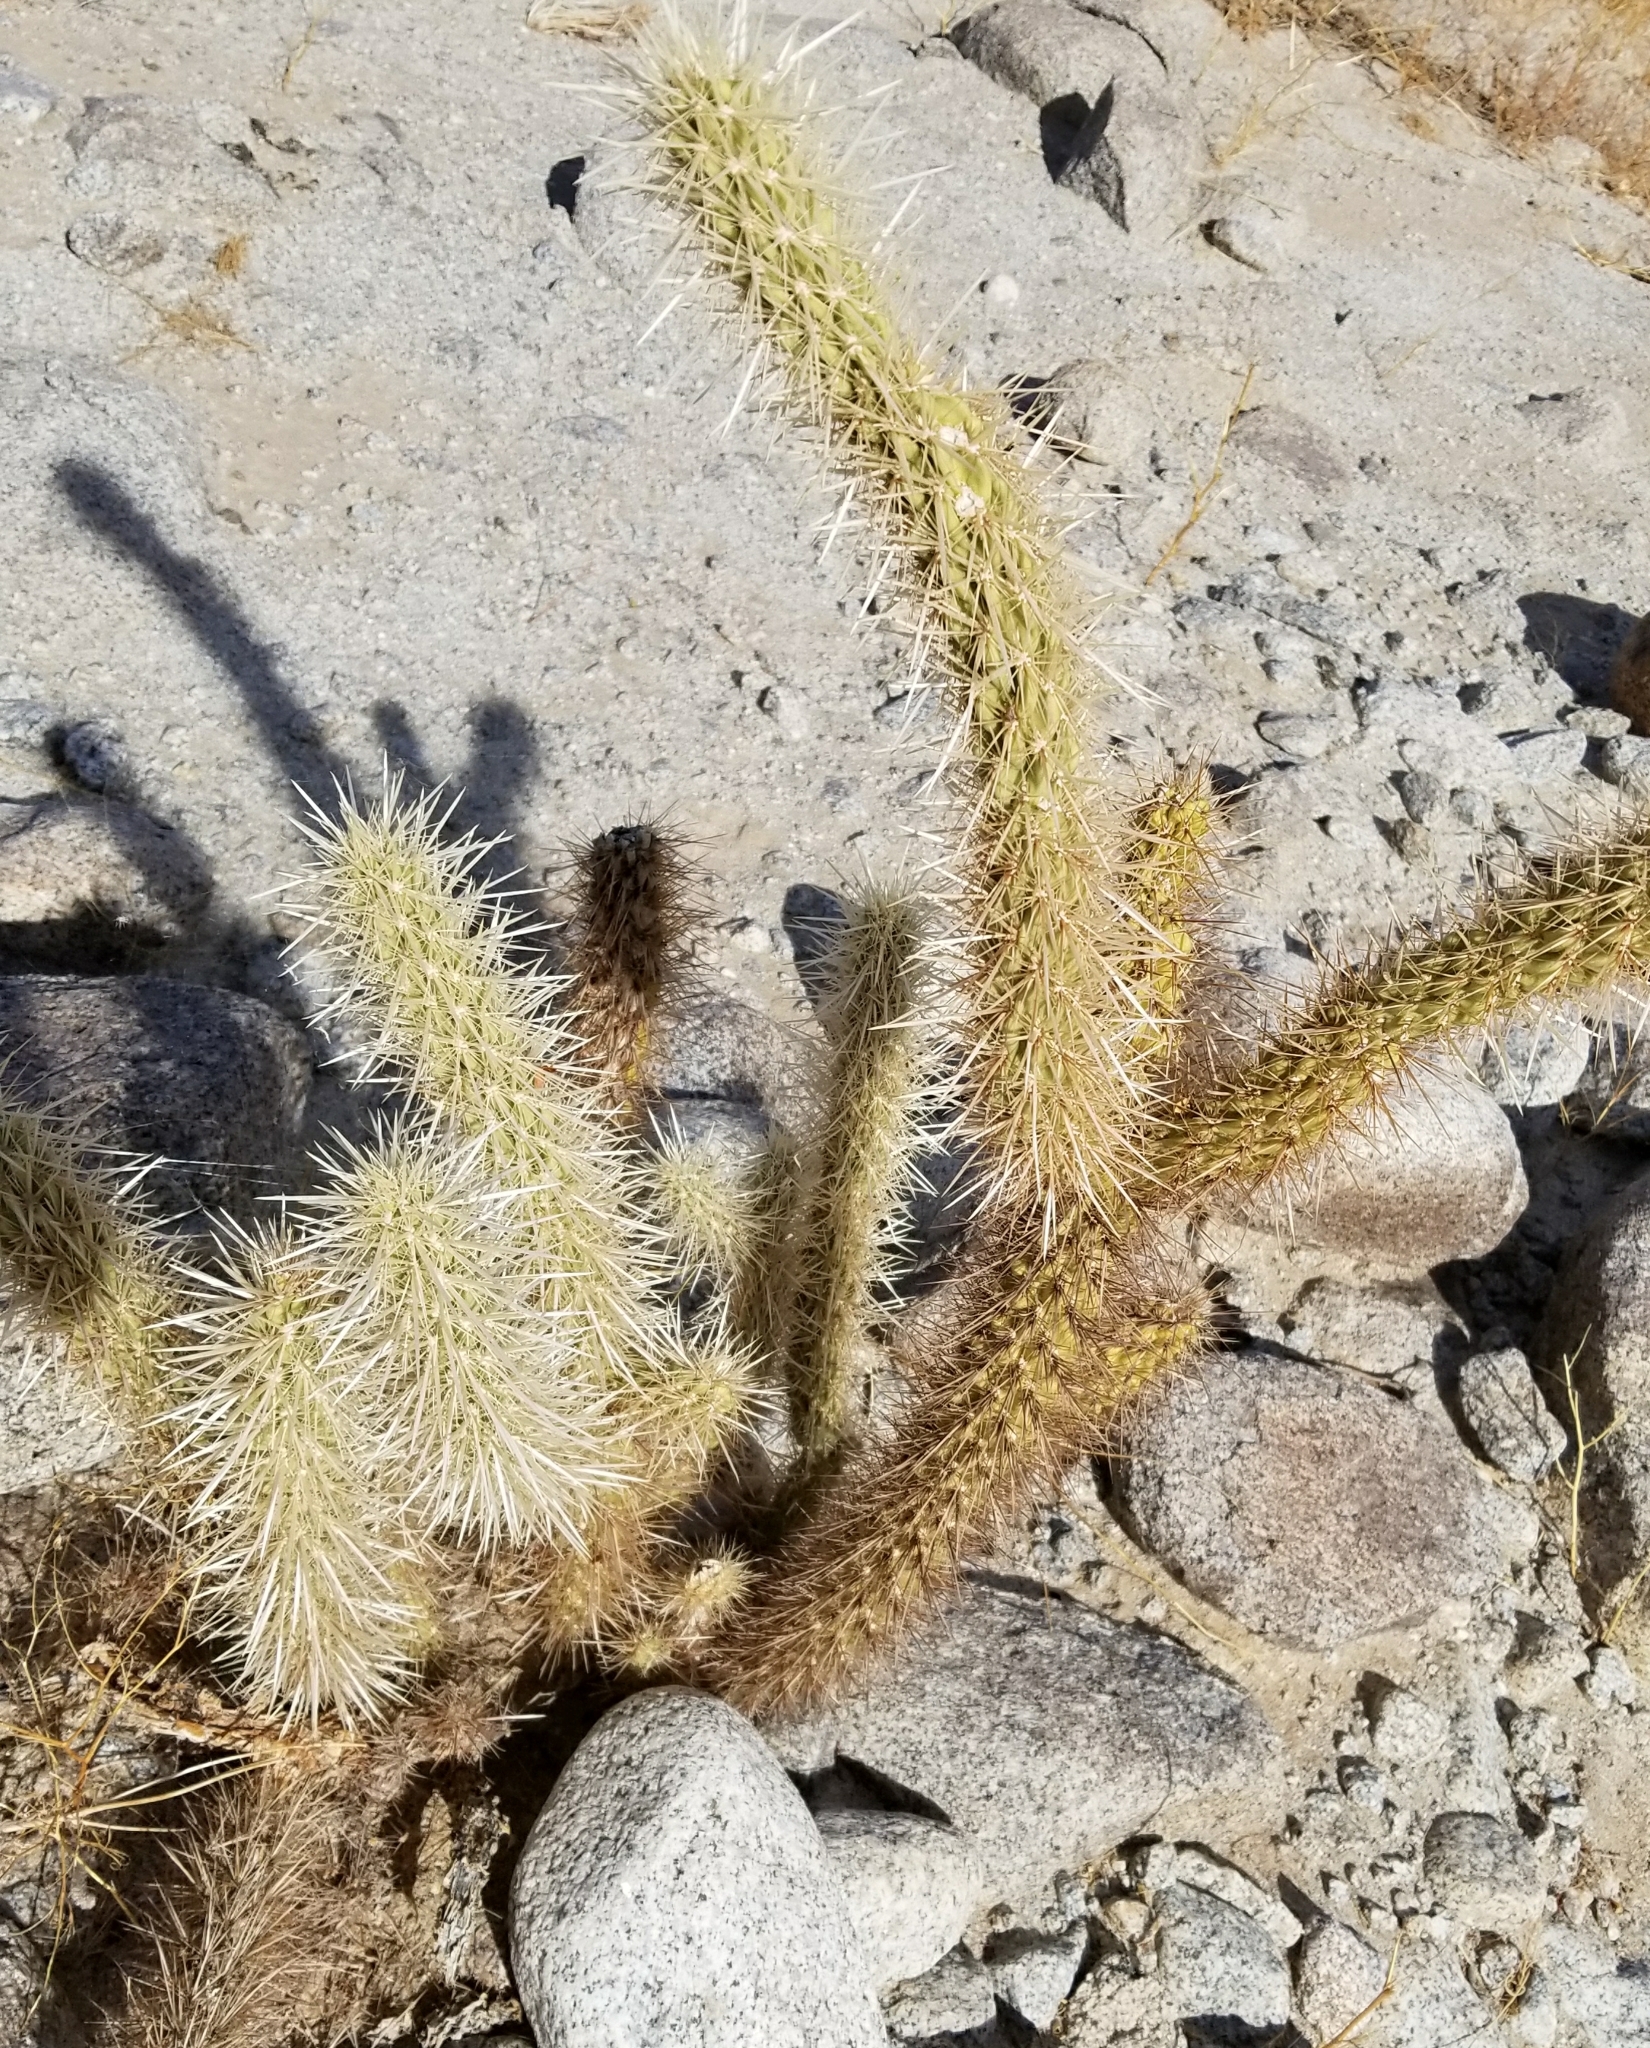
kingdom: Plantae
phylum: Tracheophyta
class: Magnoliopsida
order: Caryophyllales
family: Cactaceae
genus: Cylindropuntia
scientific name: Cylindropuntia echinocarpa
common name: Ground cholla
